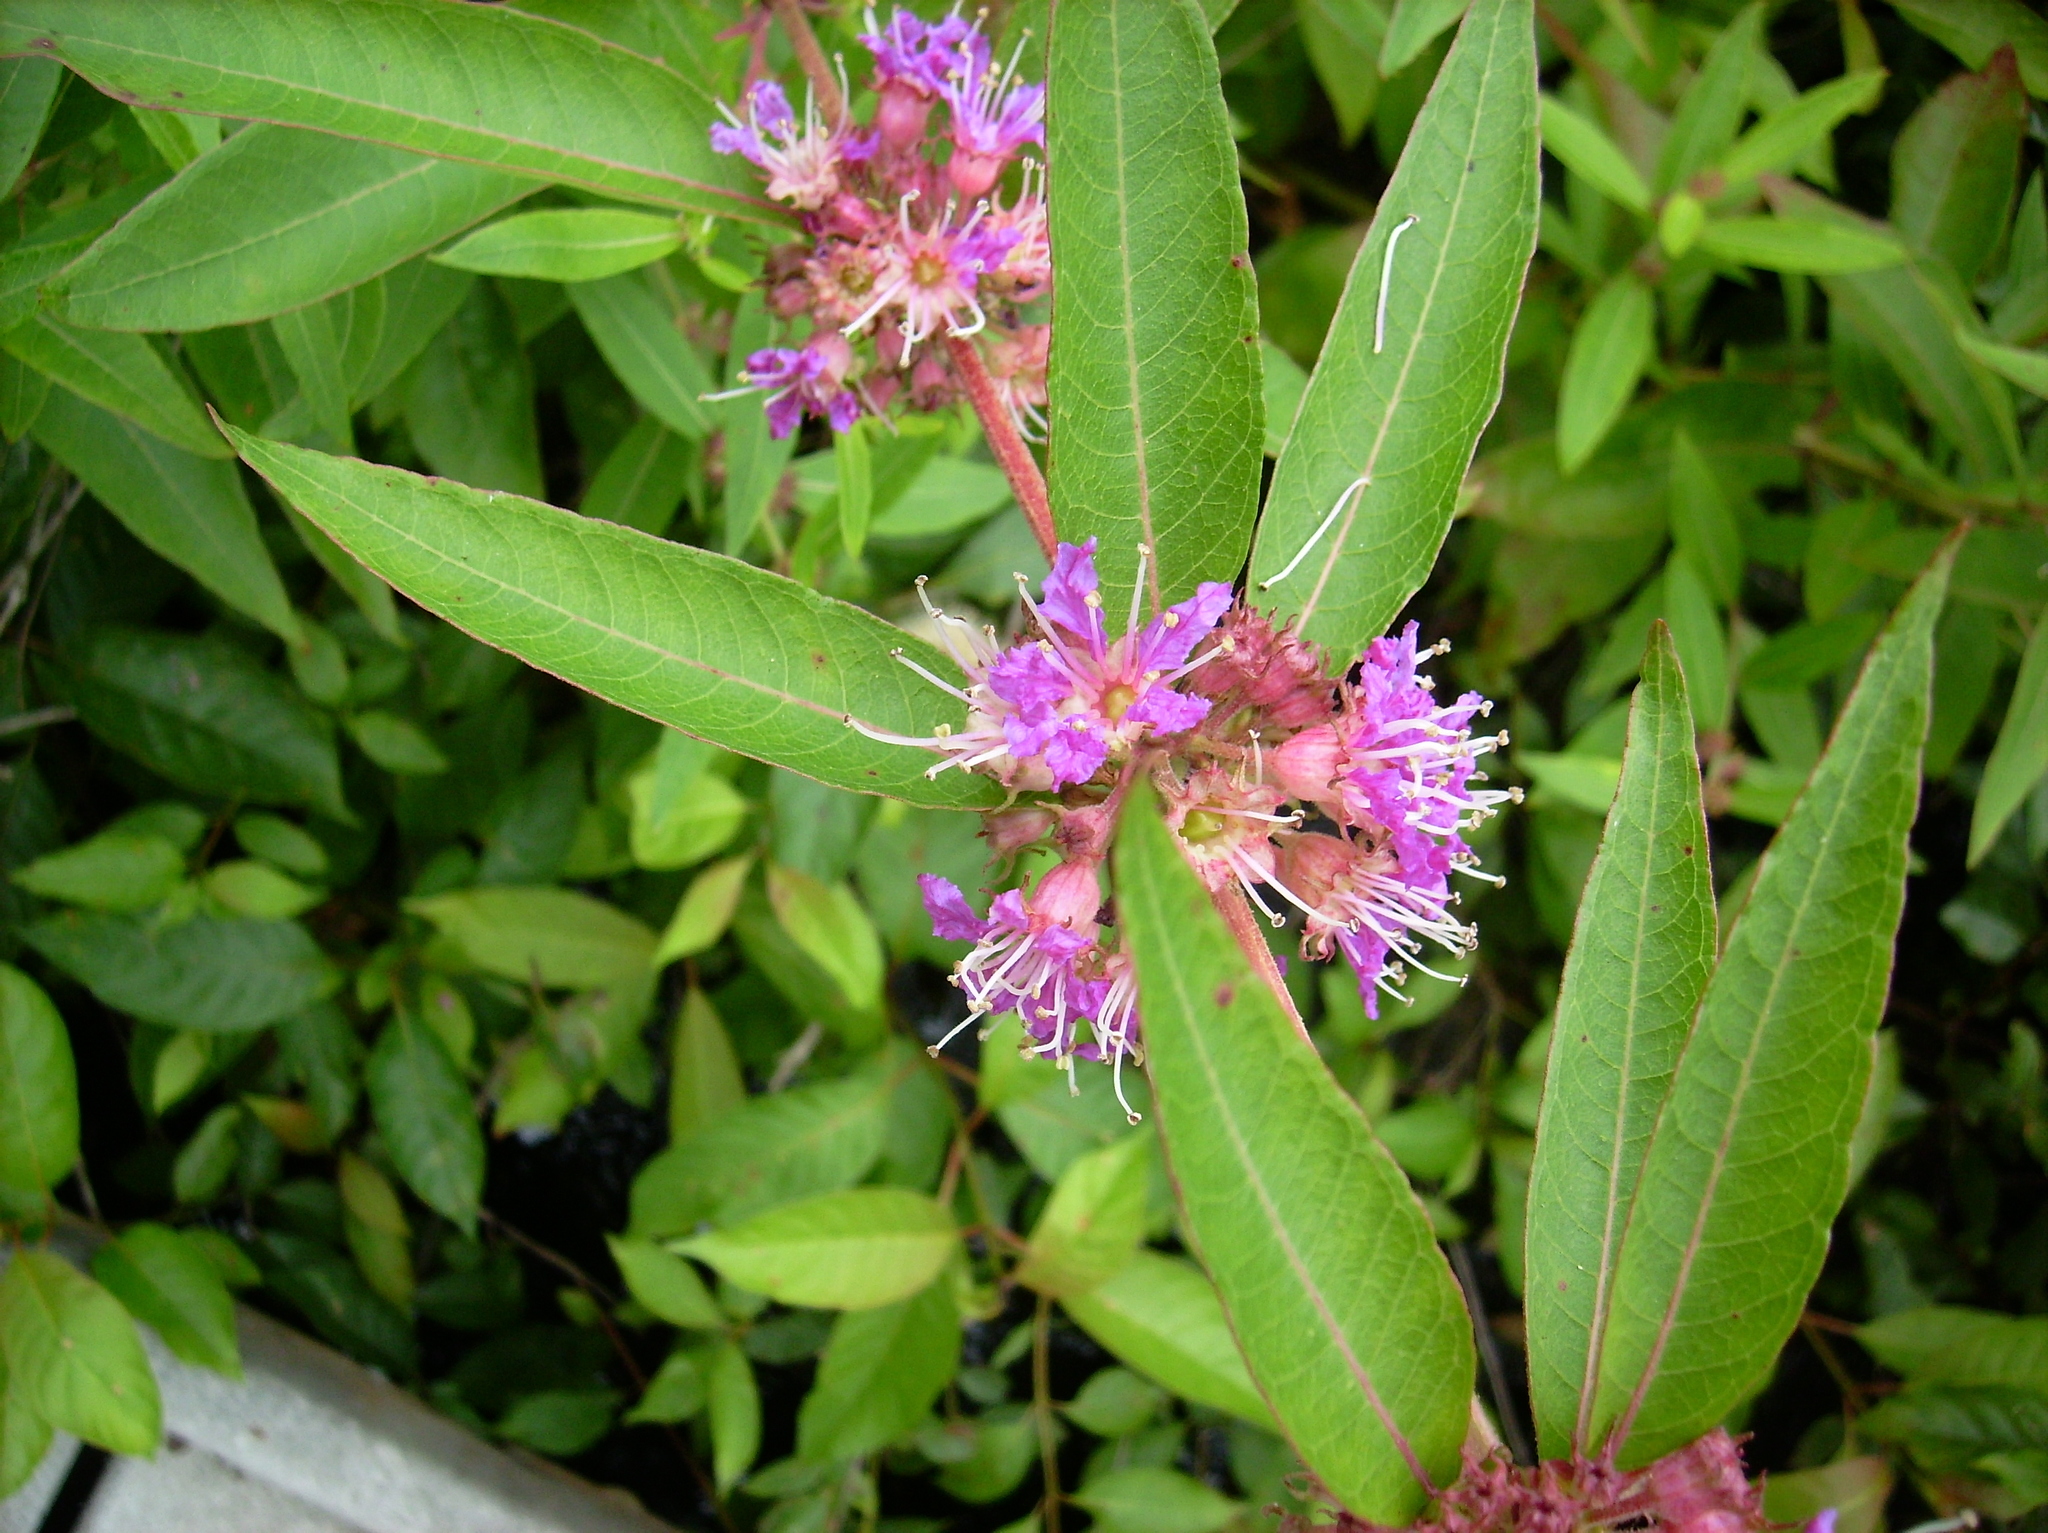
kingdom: Plantae
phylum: Tracheophyta
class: Magnoliopsida
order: Myrtales
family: Lythraceae
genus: Decodon
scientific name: Decodon verticillatus
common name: Hairy swamp loosestrife
